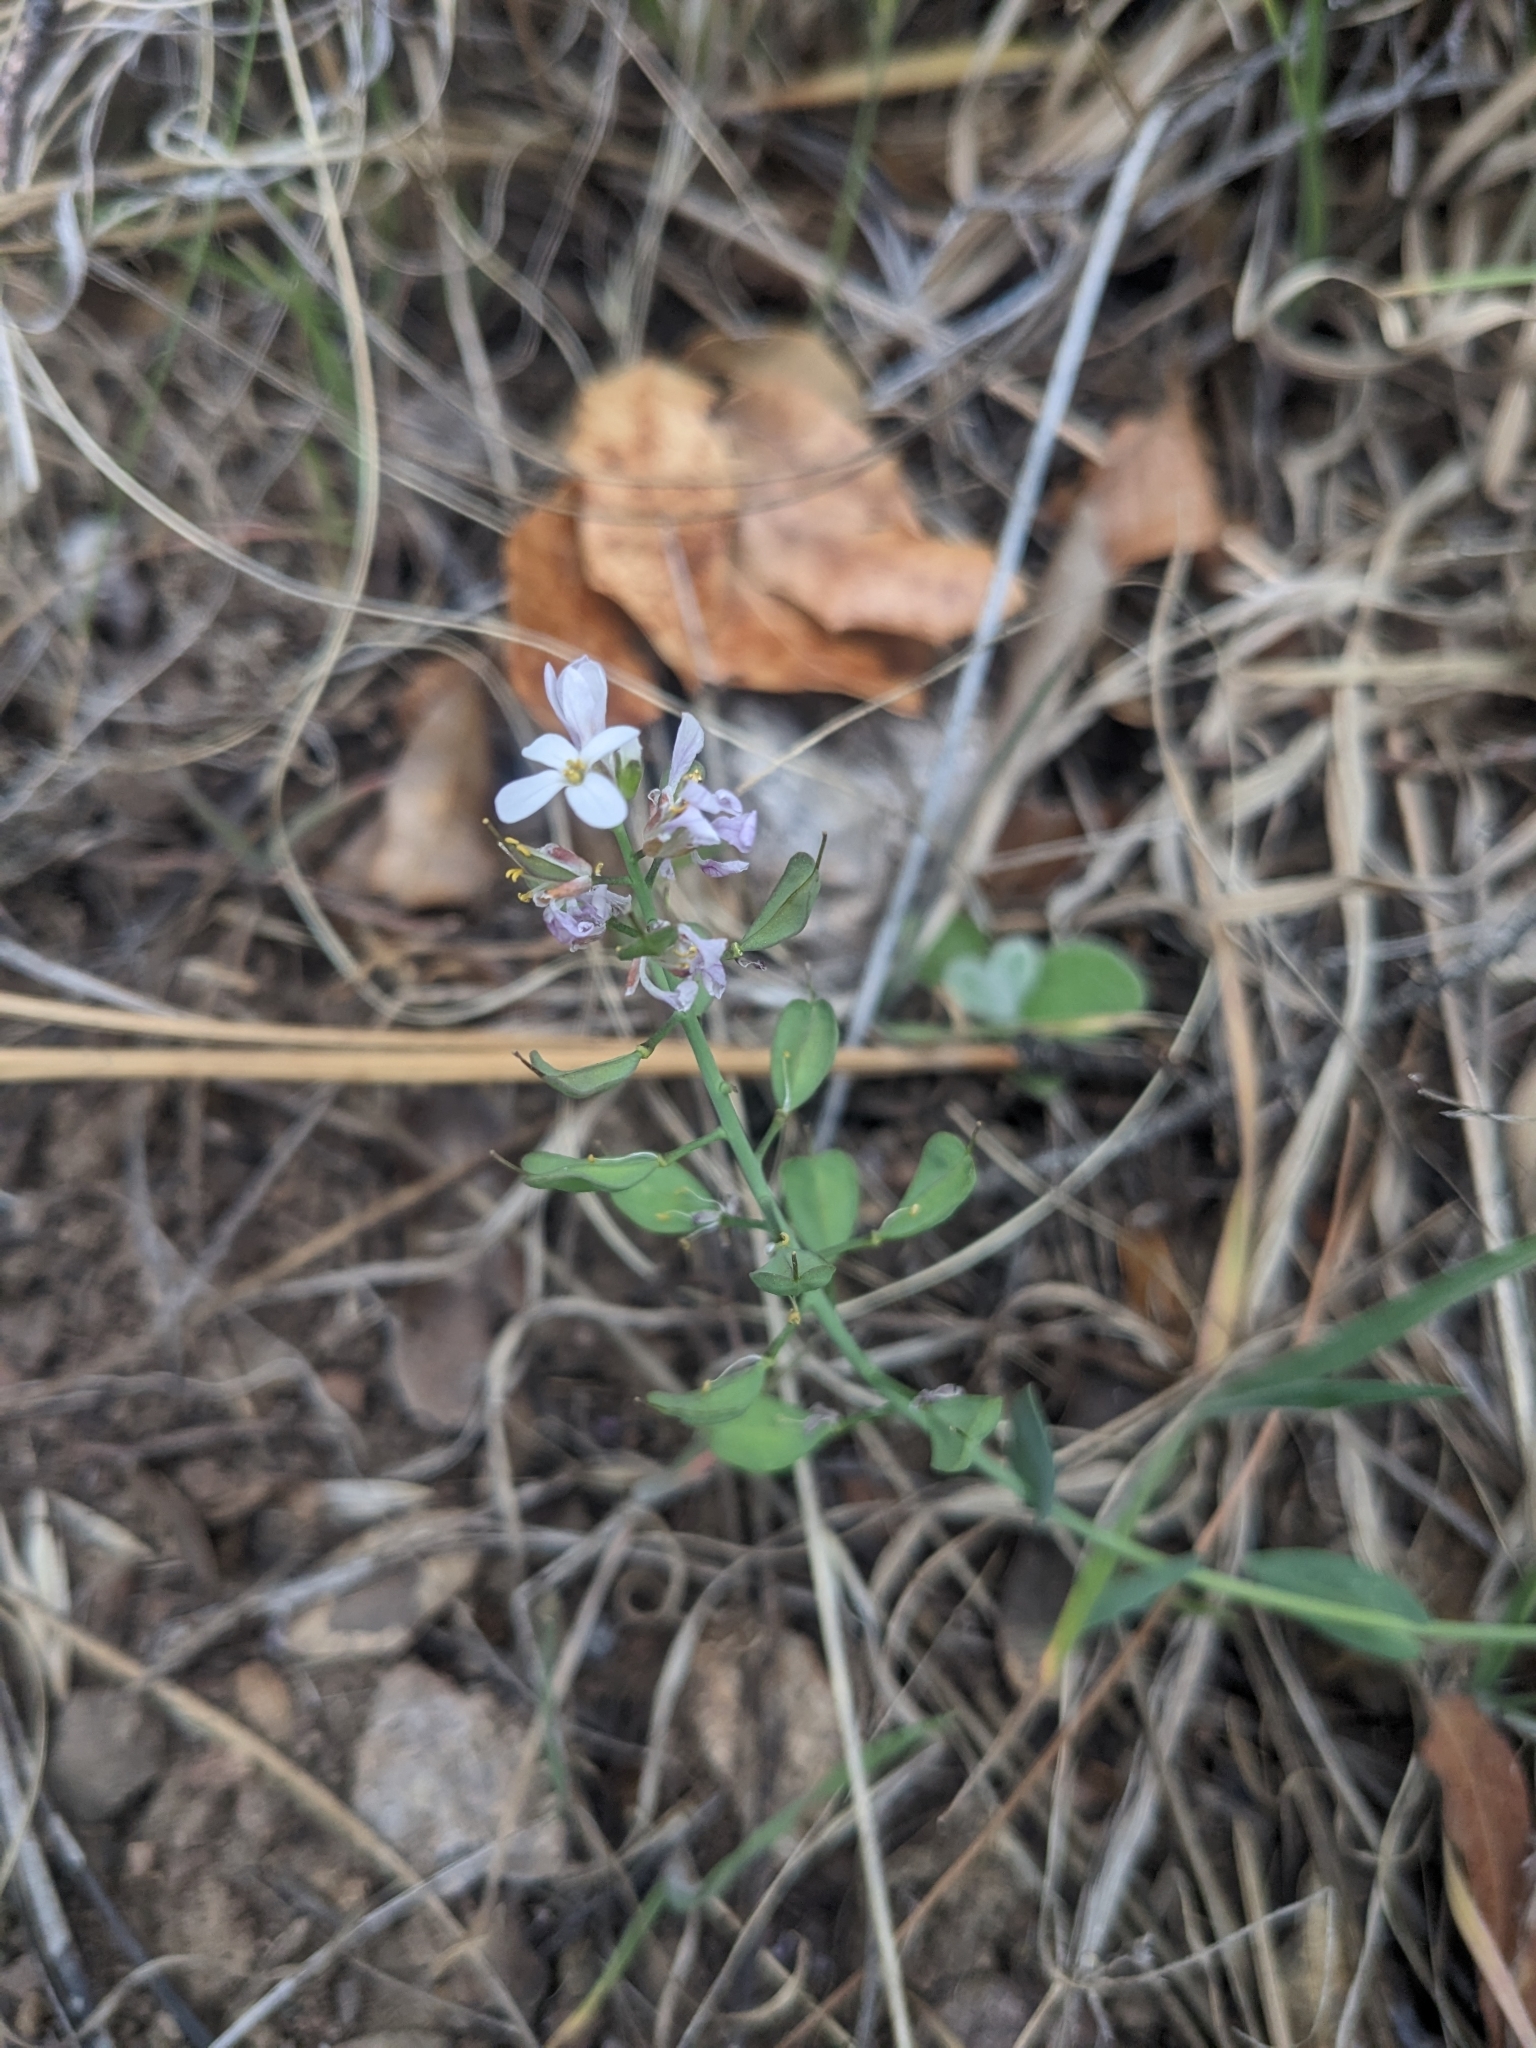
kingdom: Plantae
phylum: Tracheophyta
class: Magnoliopsida
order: Brassicales
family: Brassicaceae
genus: Noccaea
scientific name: Noccaea fendleri
